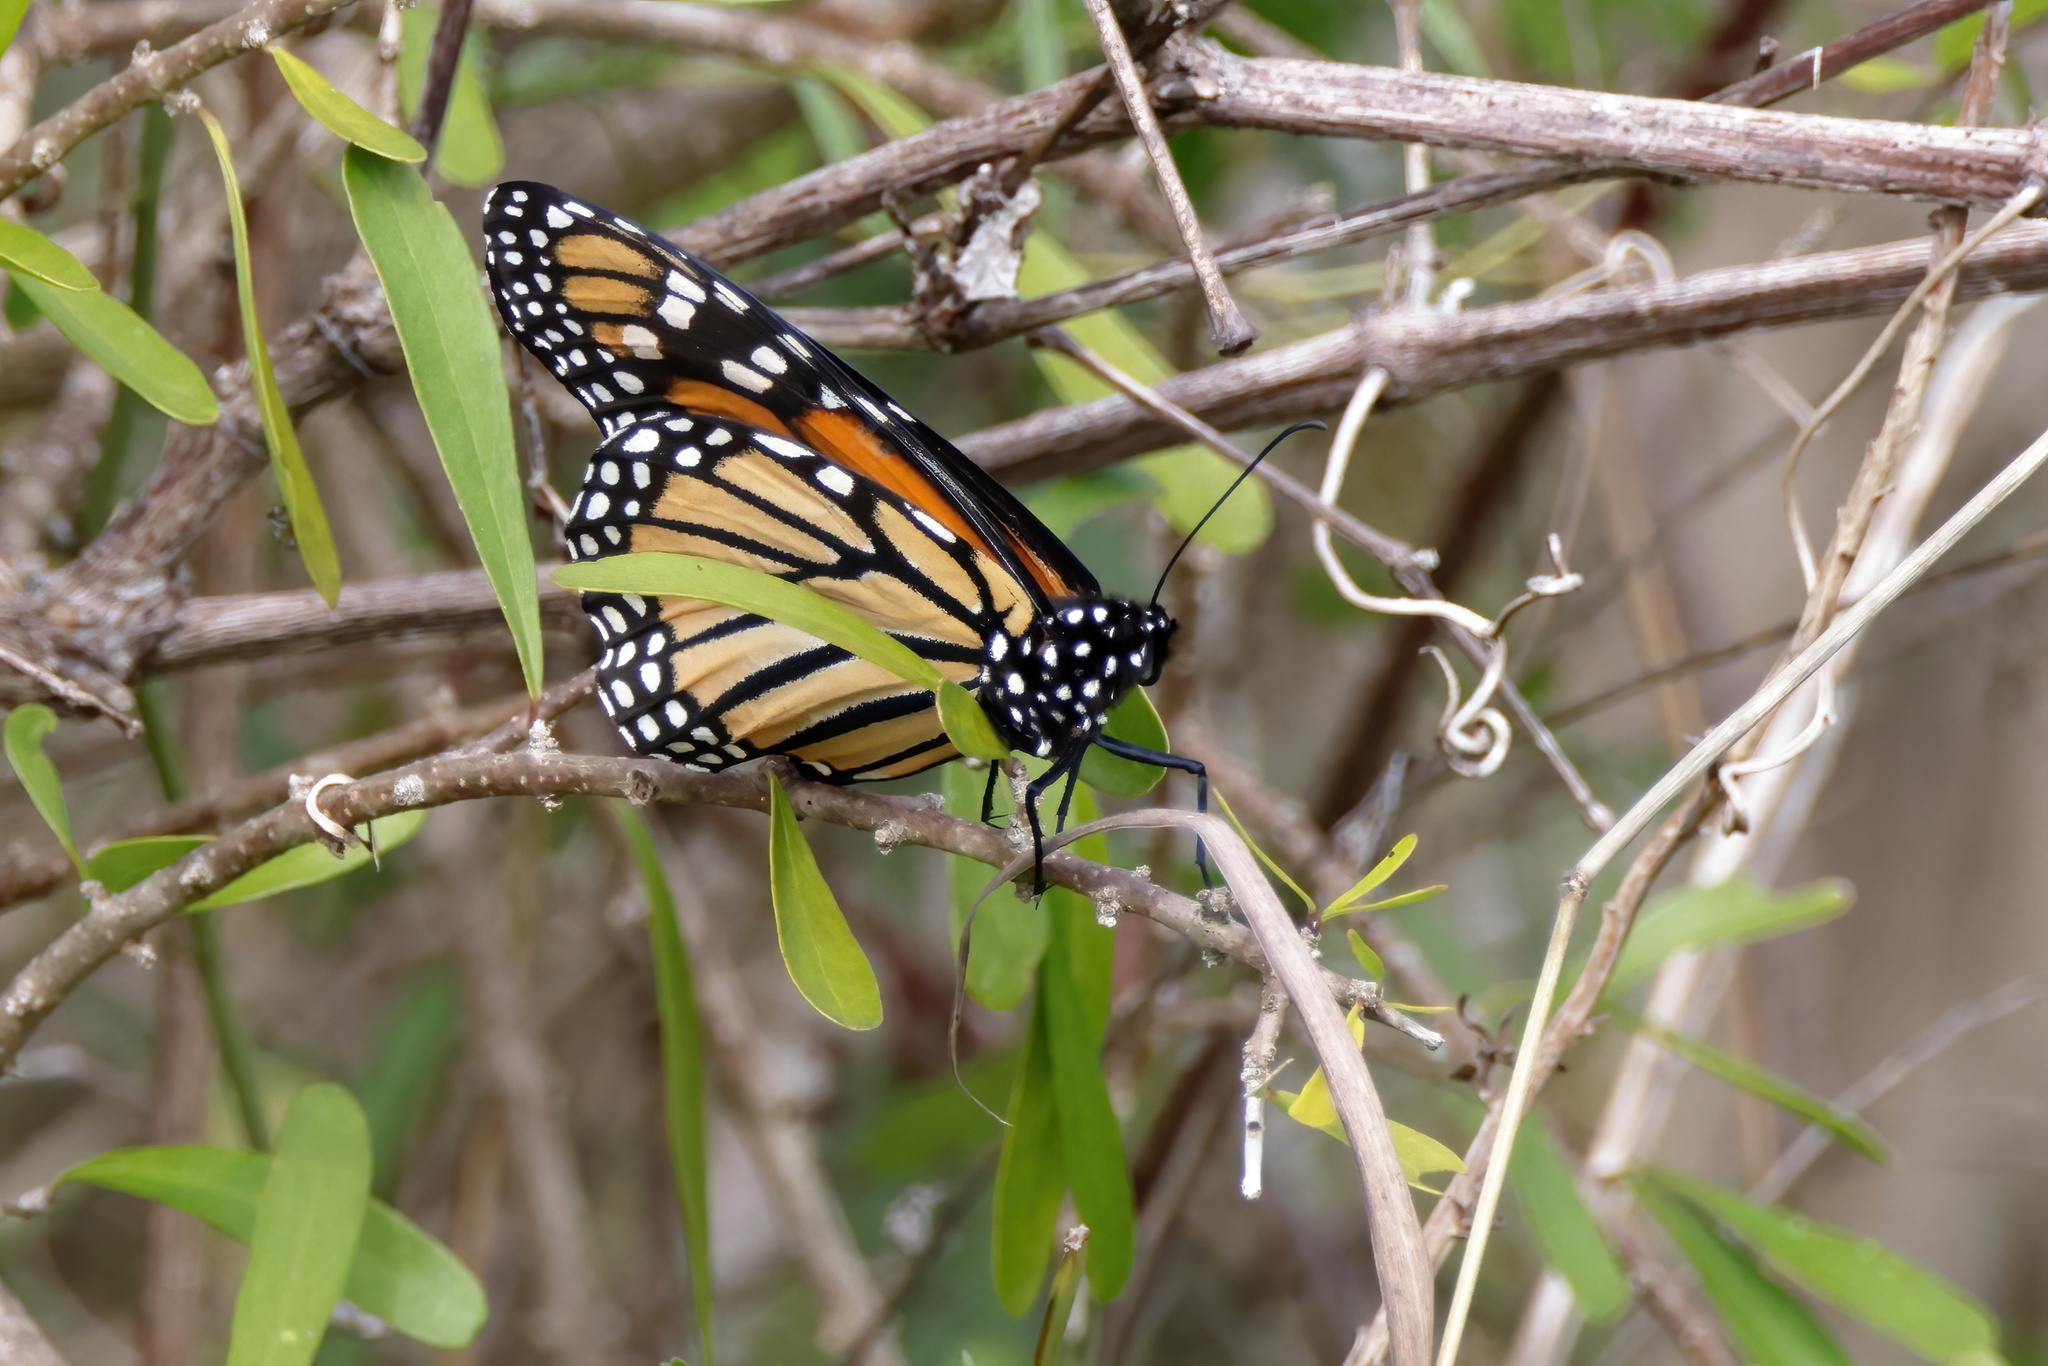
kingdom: Animalia
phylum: Arthropoda
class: Insecta
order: Lepidoptera
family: Nymphalidae
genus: Danaus
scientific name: Danaus plexippus
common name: Monarch
